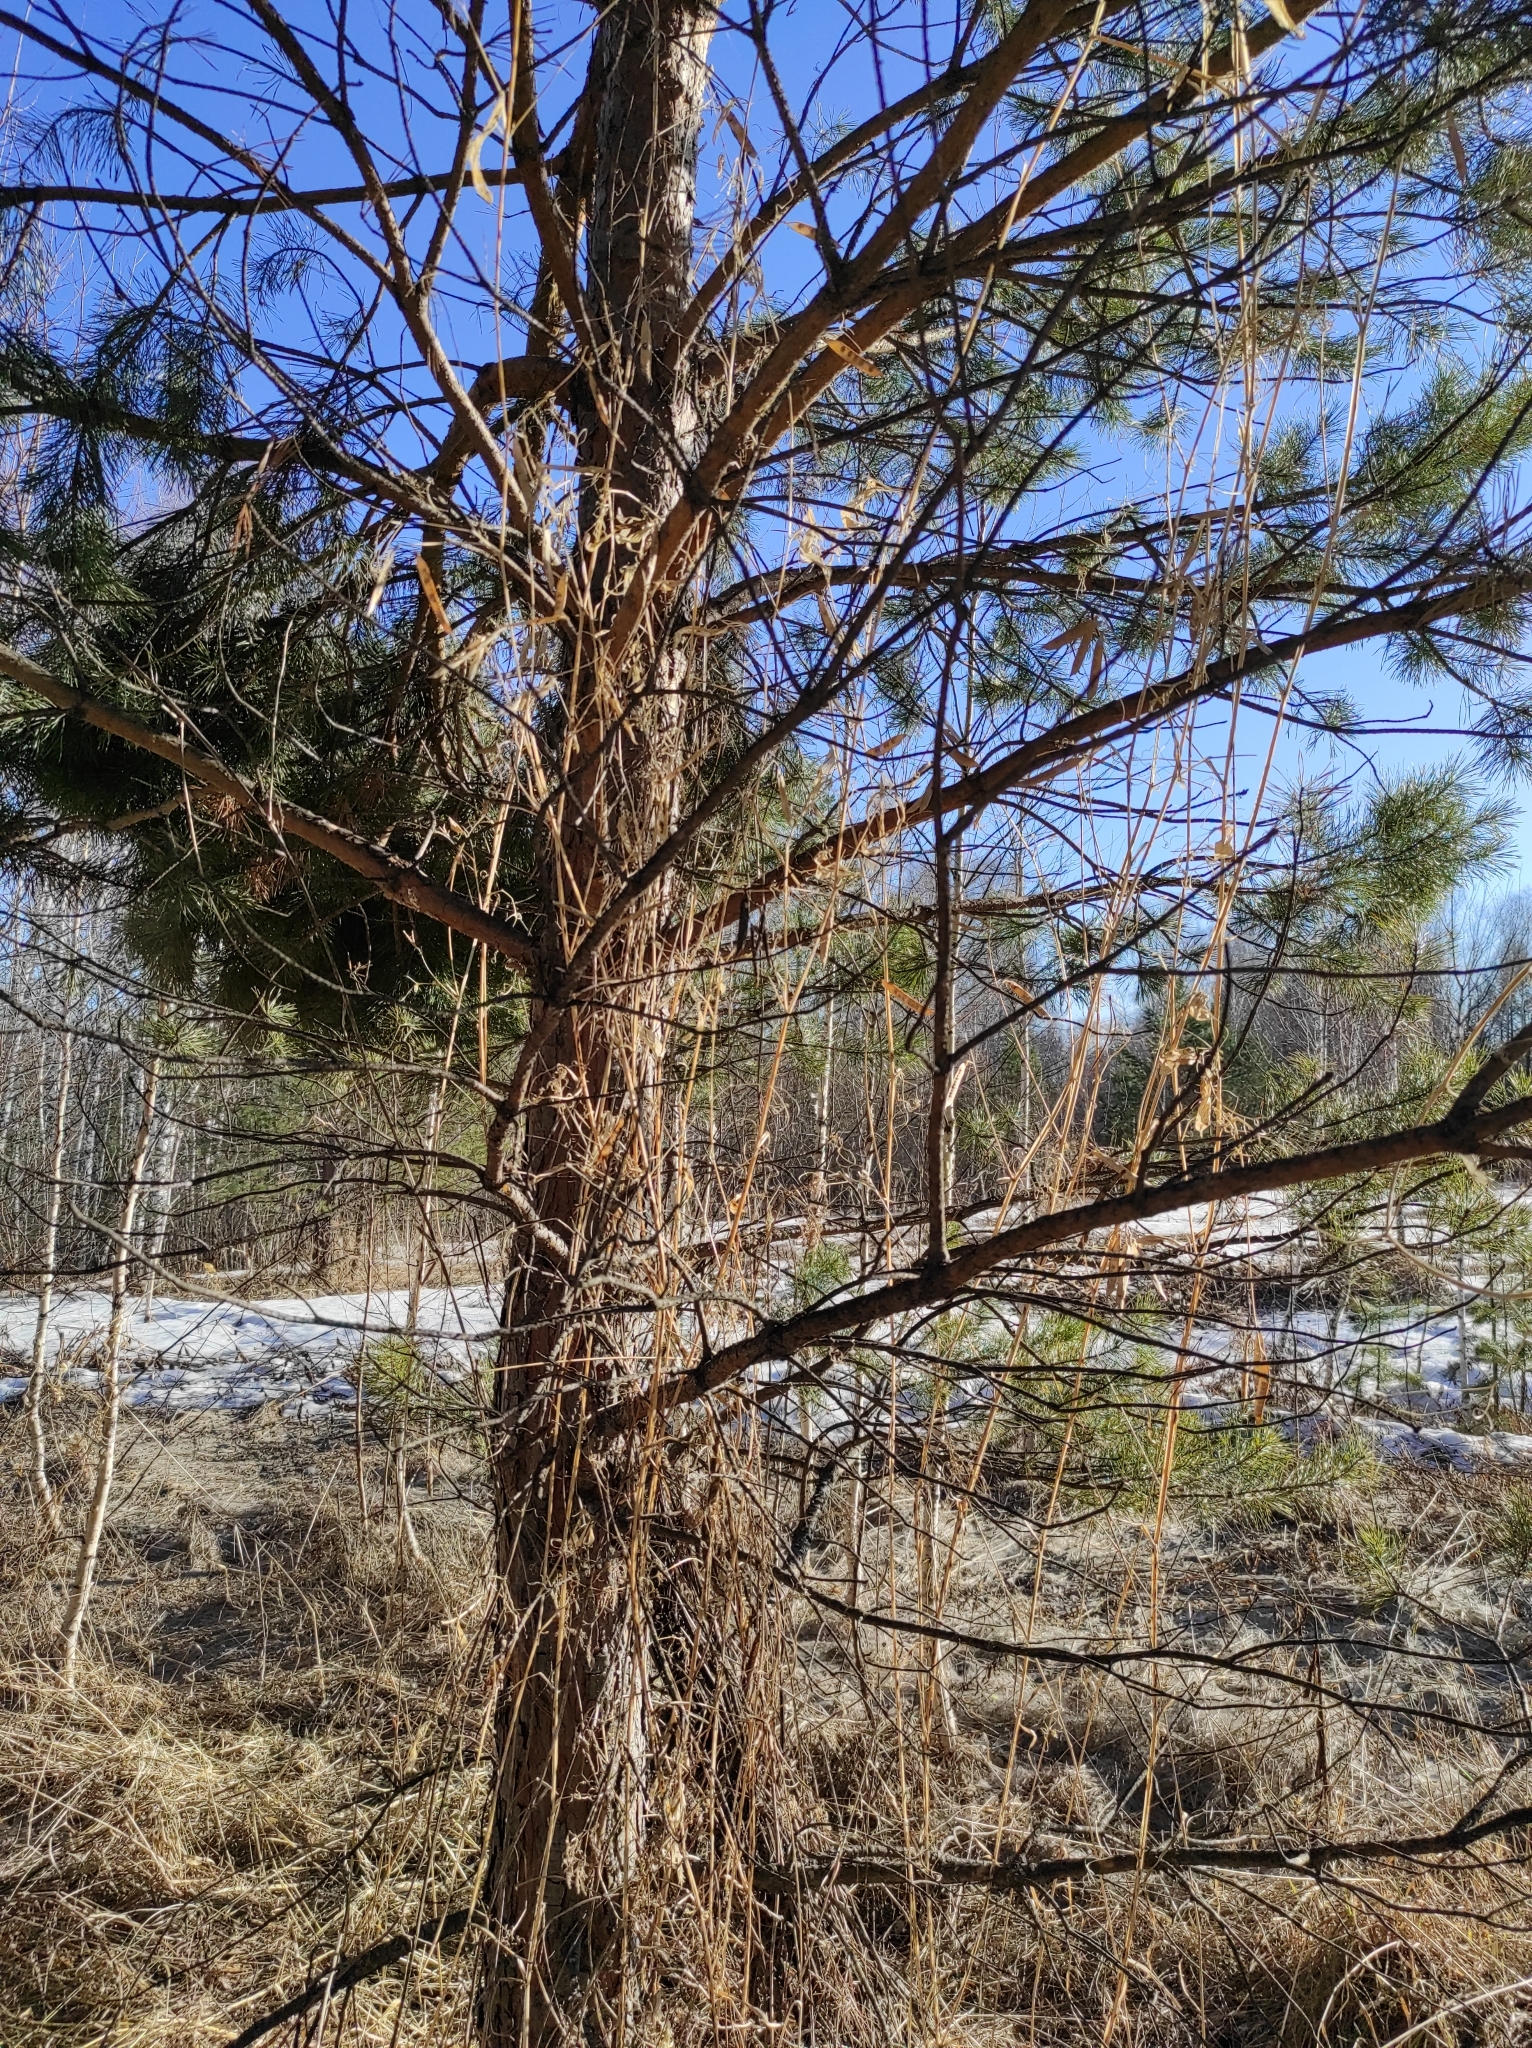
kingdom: Plantae
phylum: Tracheophyta
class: Pinopsida
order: Pinales
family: Pinaceae
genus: Pinus
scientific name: Pinus sylvestris
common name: Scots pine
